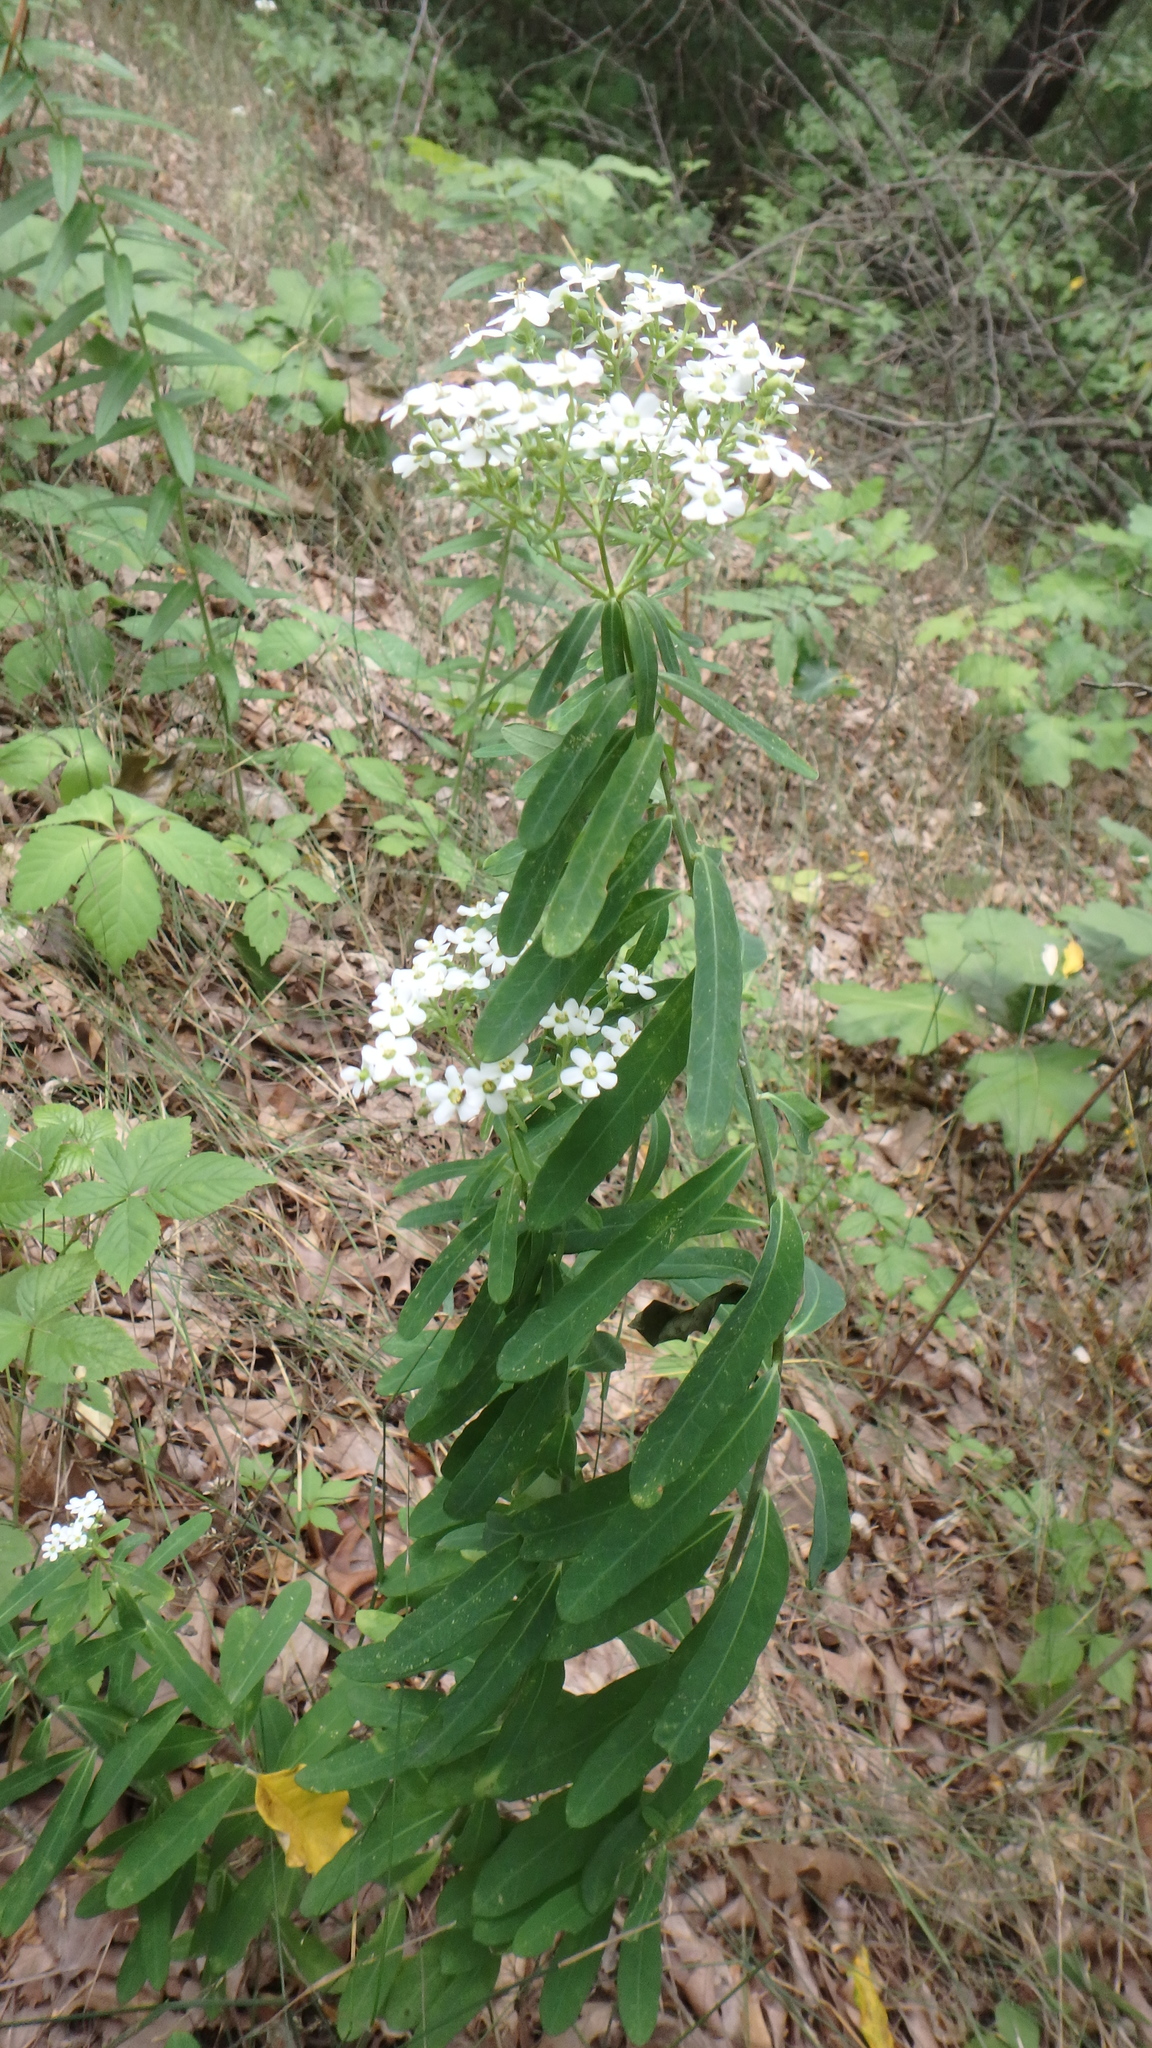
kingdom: Plantae
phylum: Tracheophyta
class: Magnoliopsida
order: Malpighiales
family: Euphorbiaceae
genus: Euphorbia
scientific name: Euphorbia corollata
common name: Flowering spurge
